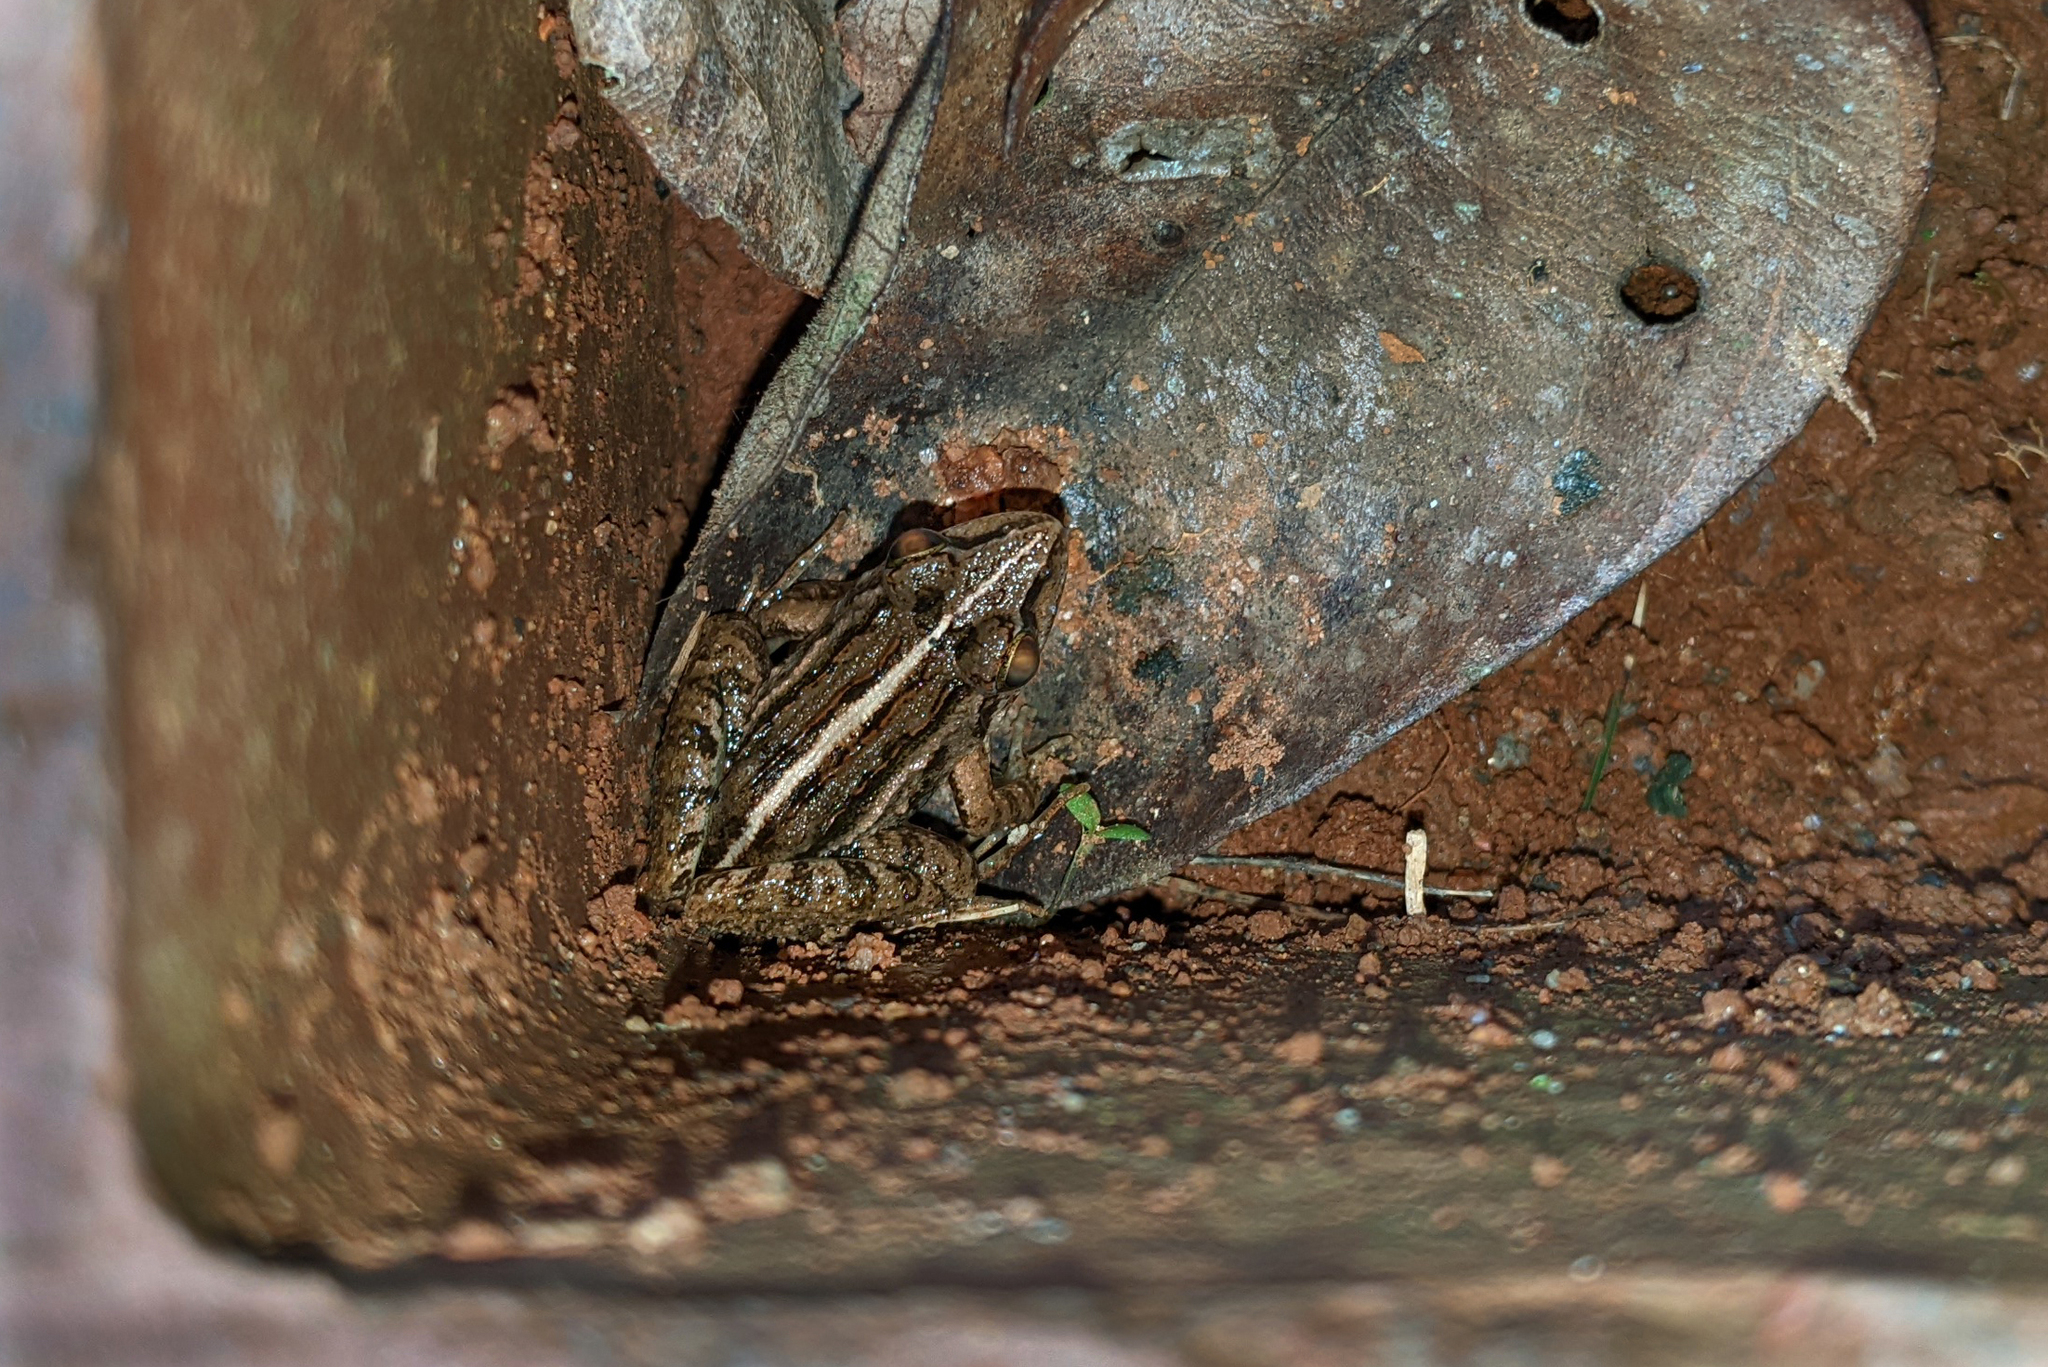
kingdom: Animalia
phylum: Chordata
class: Amphibia
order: Anura
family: Dicroglossidae
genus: Hoplobatrachus
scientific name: Hoplobatrachus tigerinus
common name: Indian bullfrog
